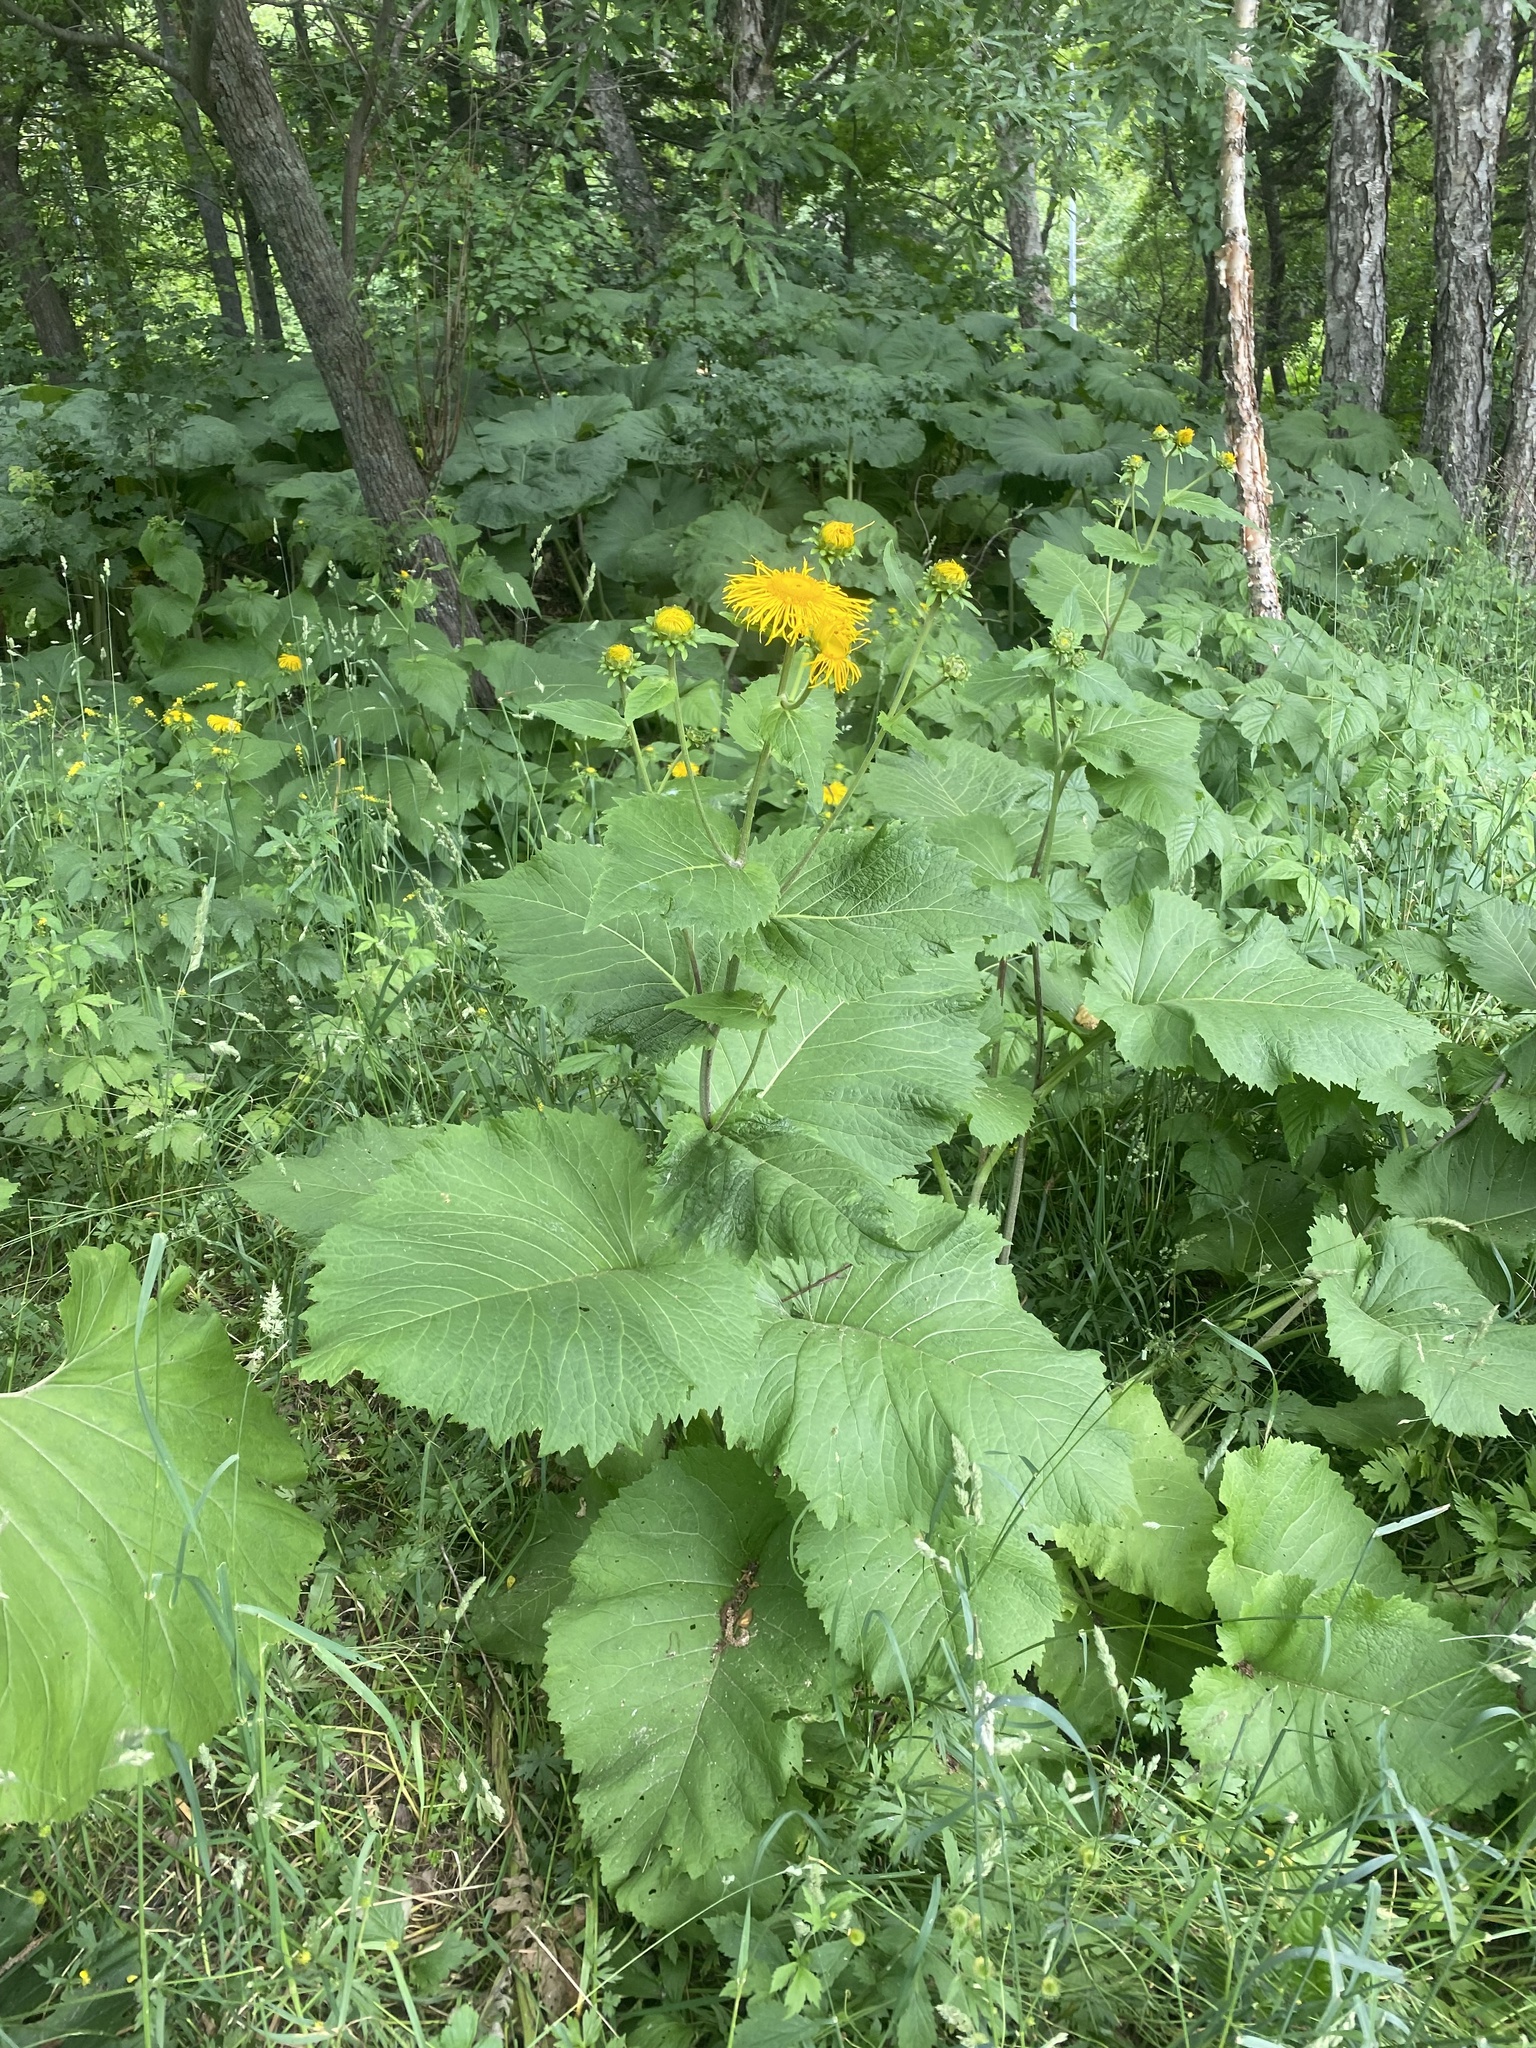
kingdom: Plantae
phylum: Tracheophyta
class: Magnoliopsida
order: Asterales
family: Asteraceae
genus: Telekia
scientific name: Telekia speciosa
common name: Yellow oxeye
